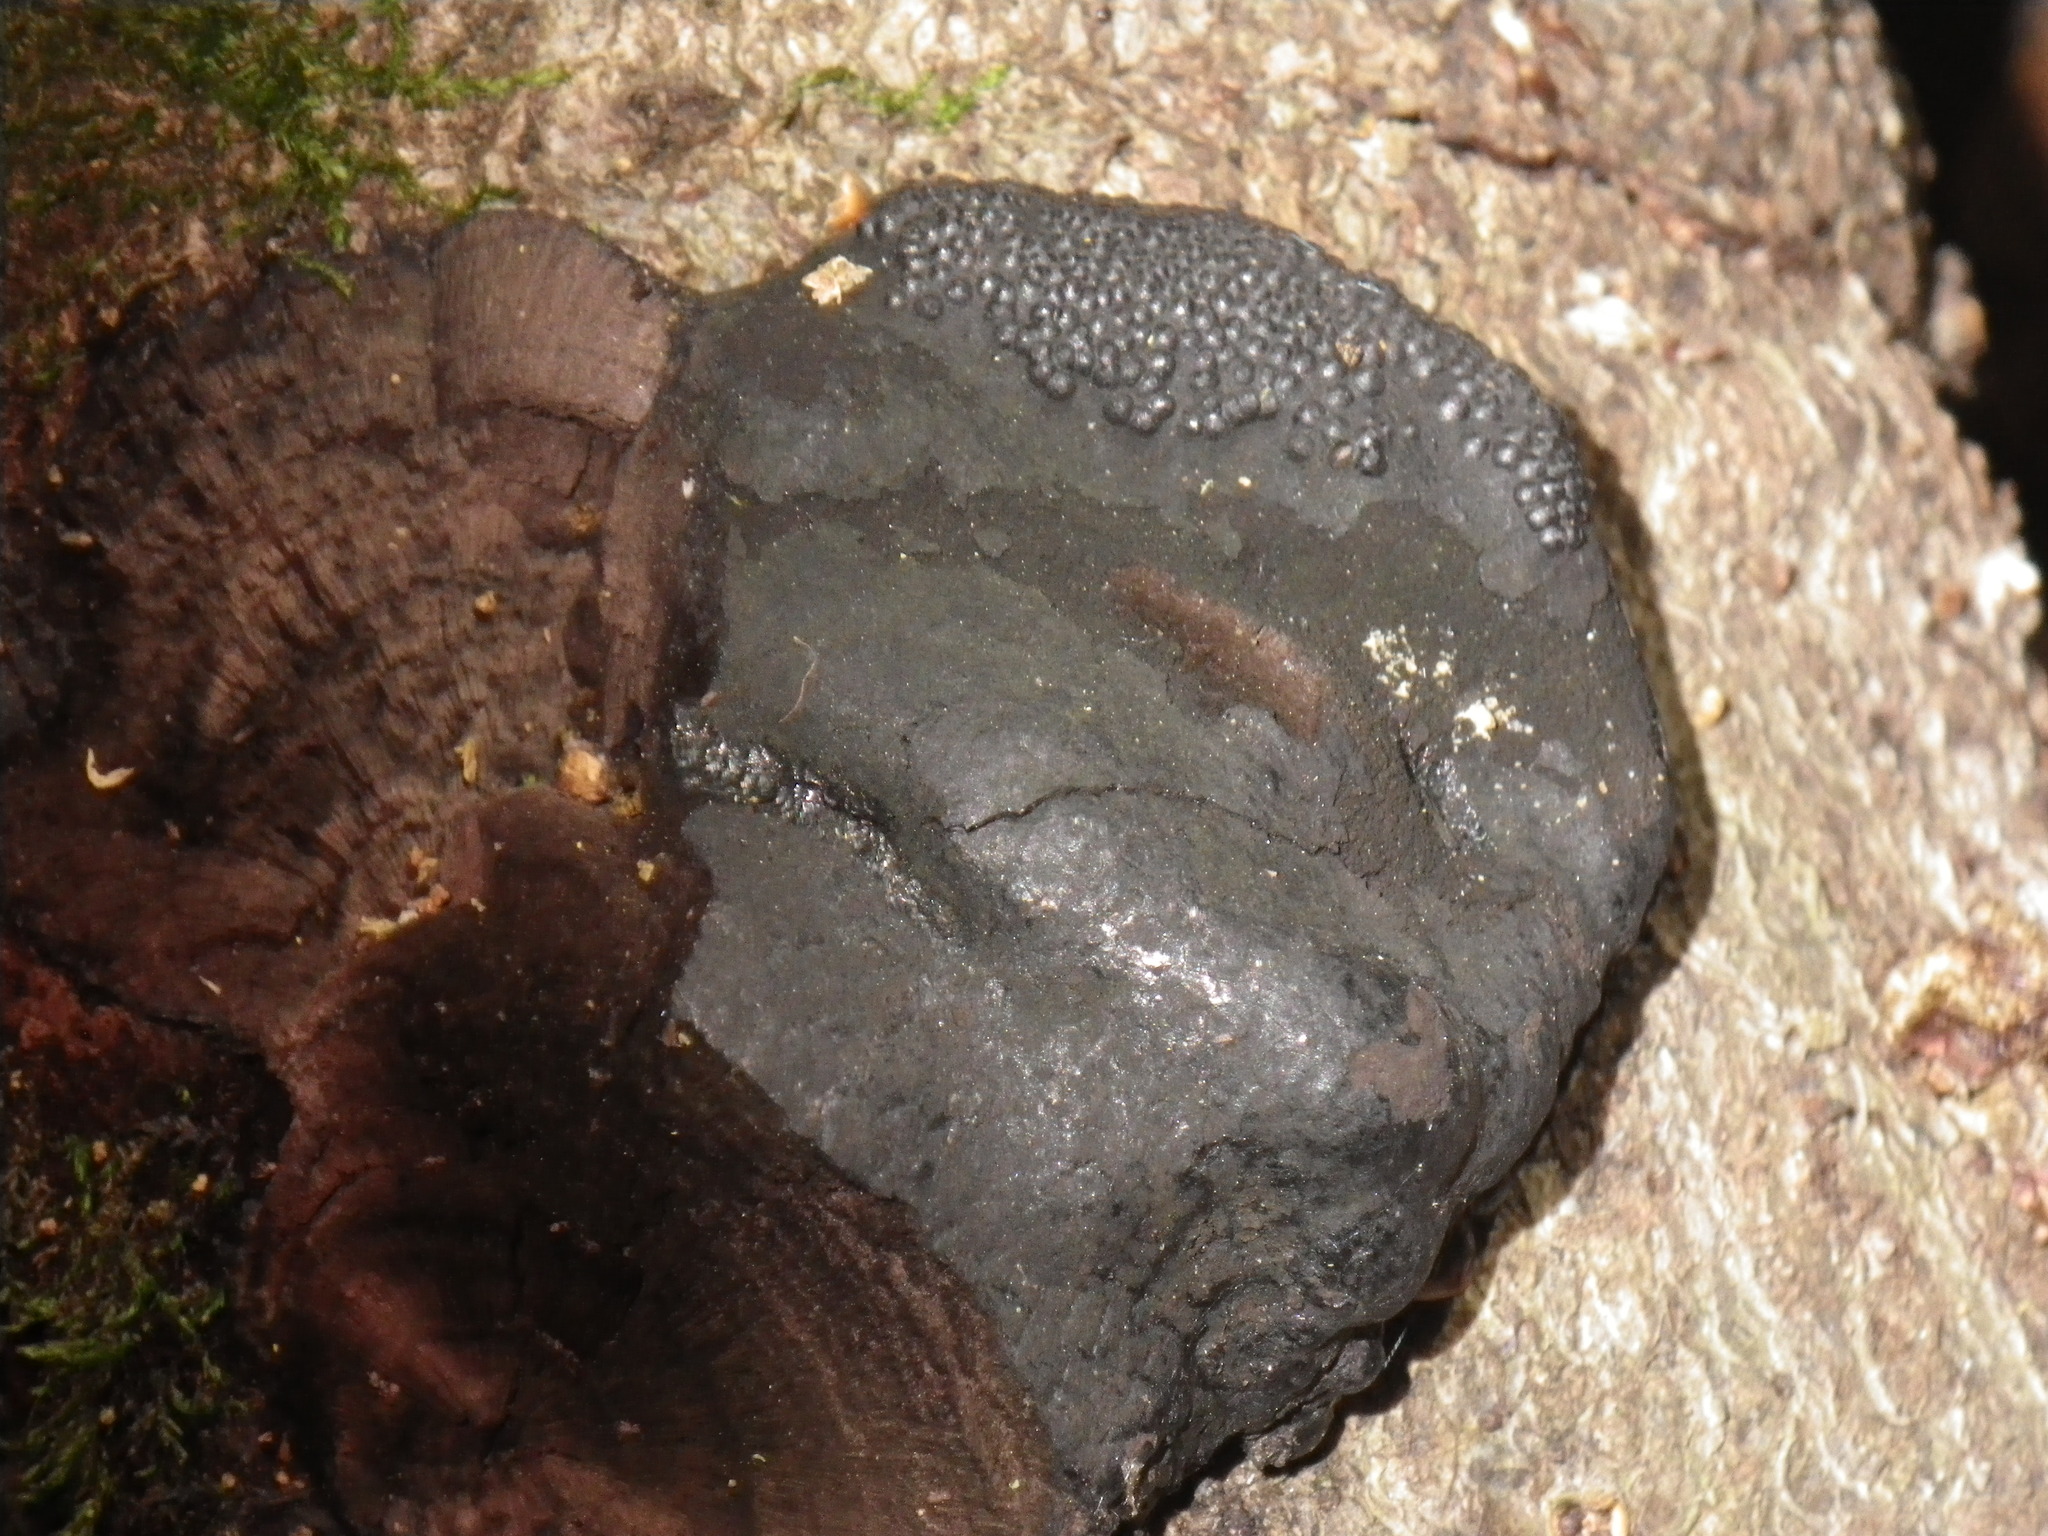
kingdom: Fungi
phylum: Ascomycota
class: Sordariomycetes
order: Xylariales
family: Hypoxylaceae
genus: Annulohypoxylon
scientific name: Annulohypoxylon thouarsianum
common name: Cramp balls
